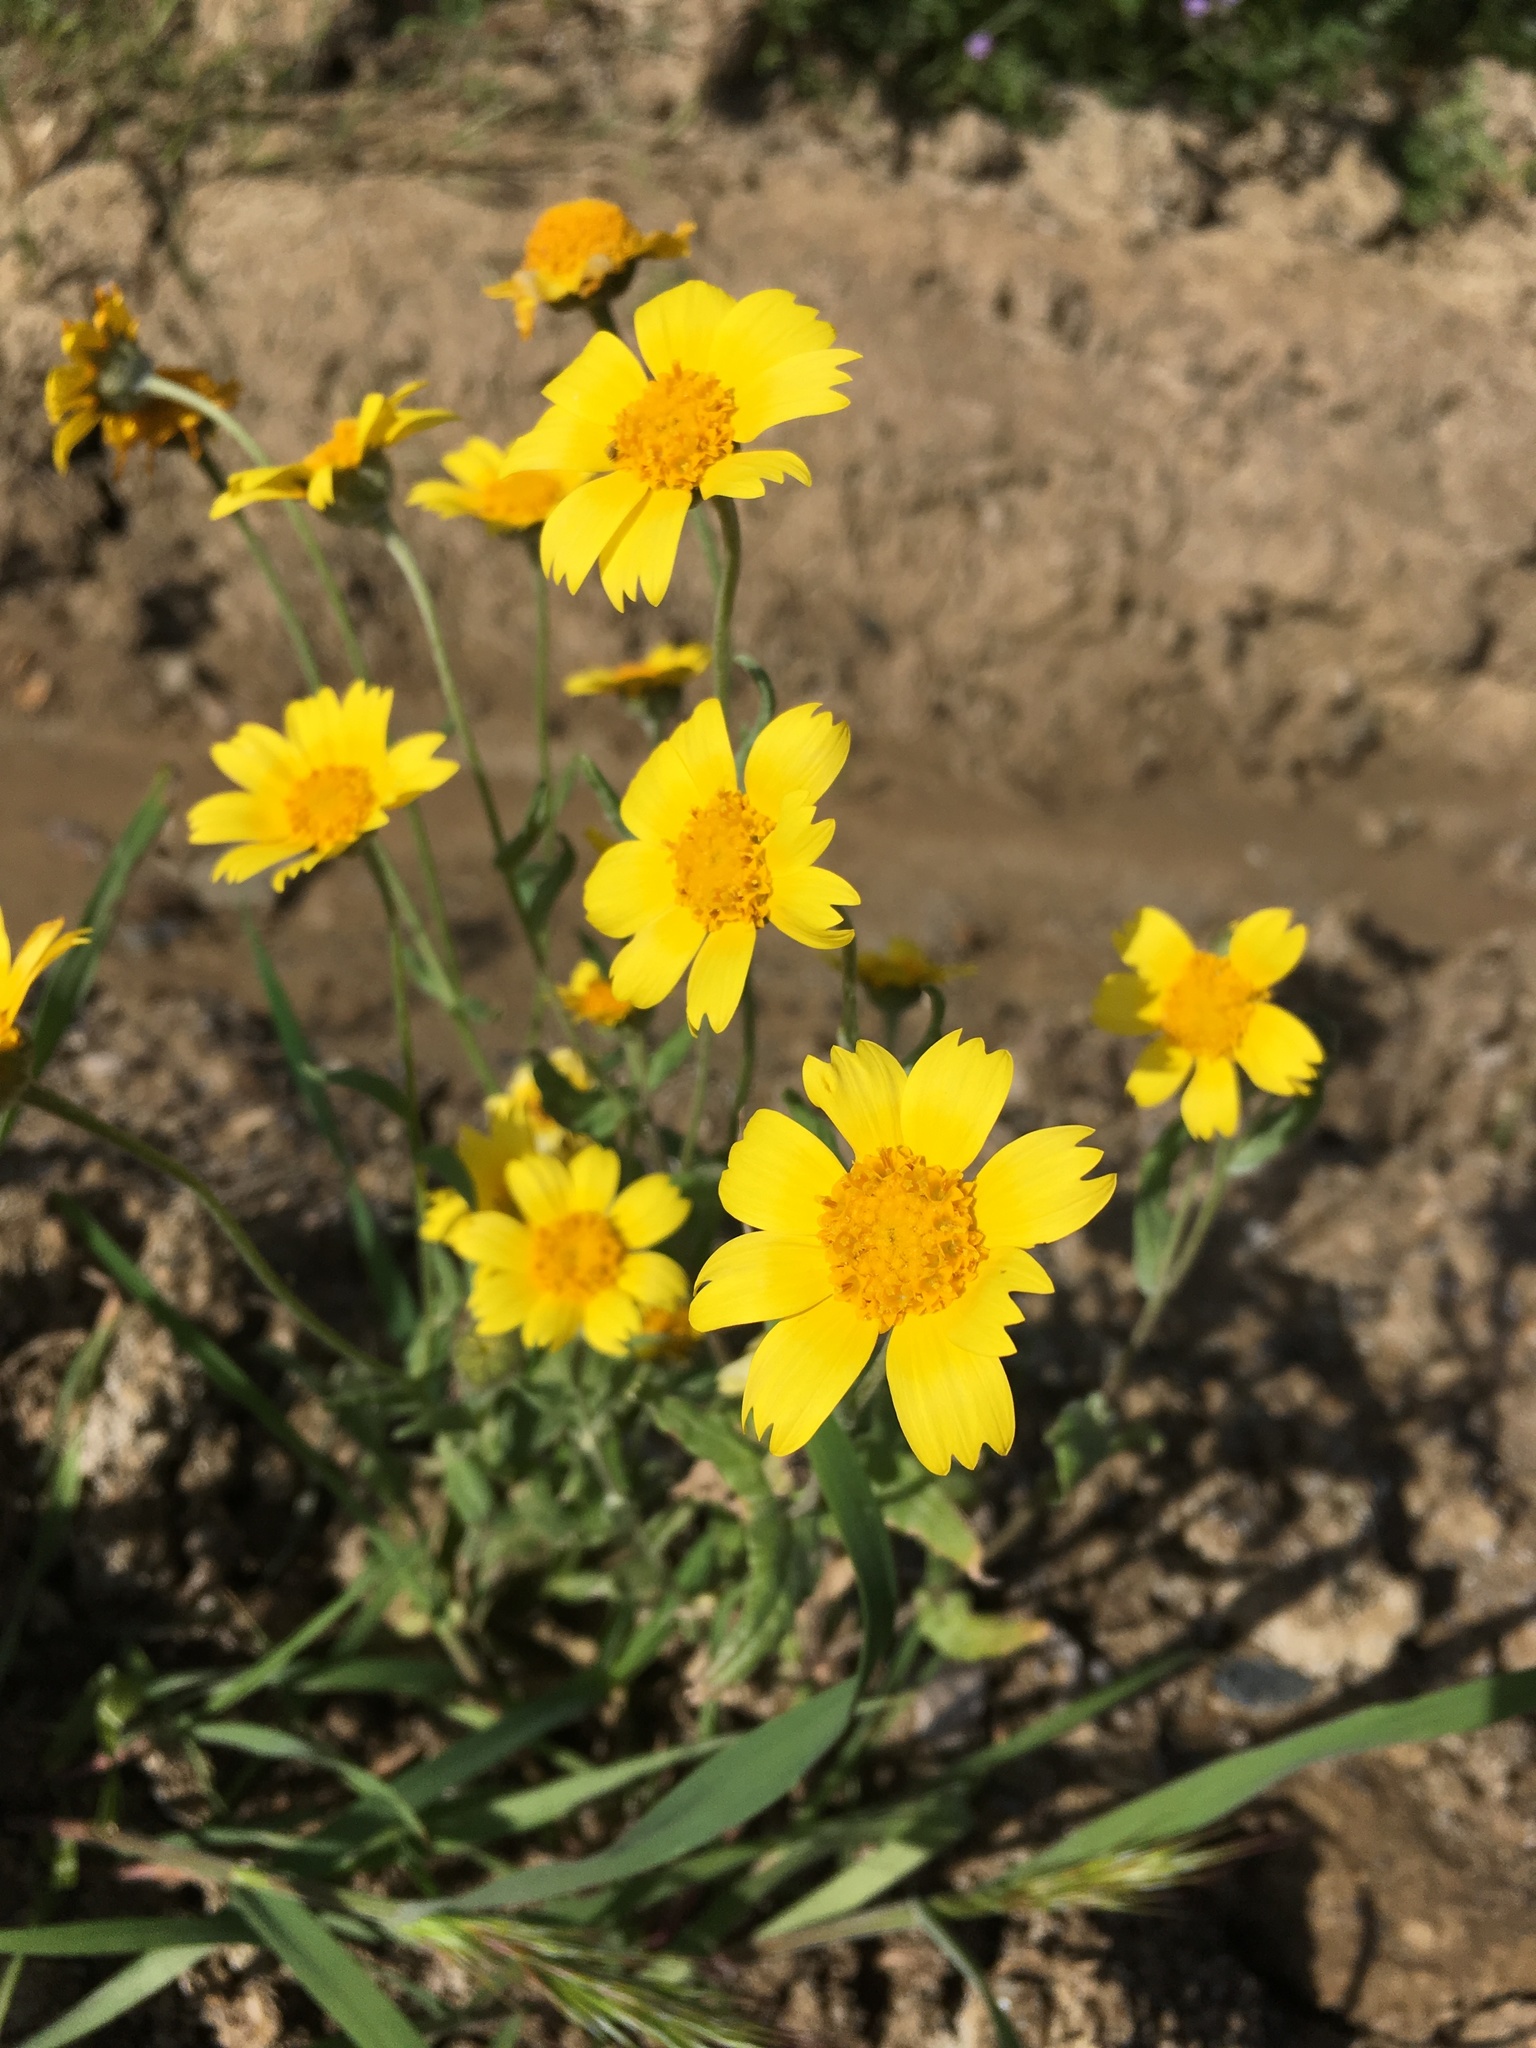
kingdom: Plantae
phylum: Tracheophyta
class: Magnoliopsida
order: Asterales
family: Asteraceae
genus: Monolopia
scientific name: Monolopia lanceolata
